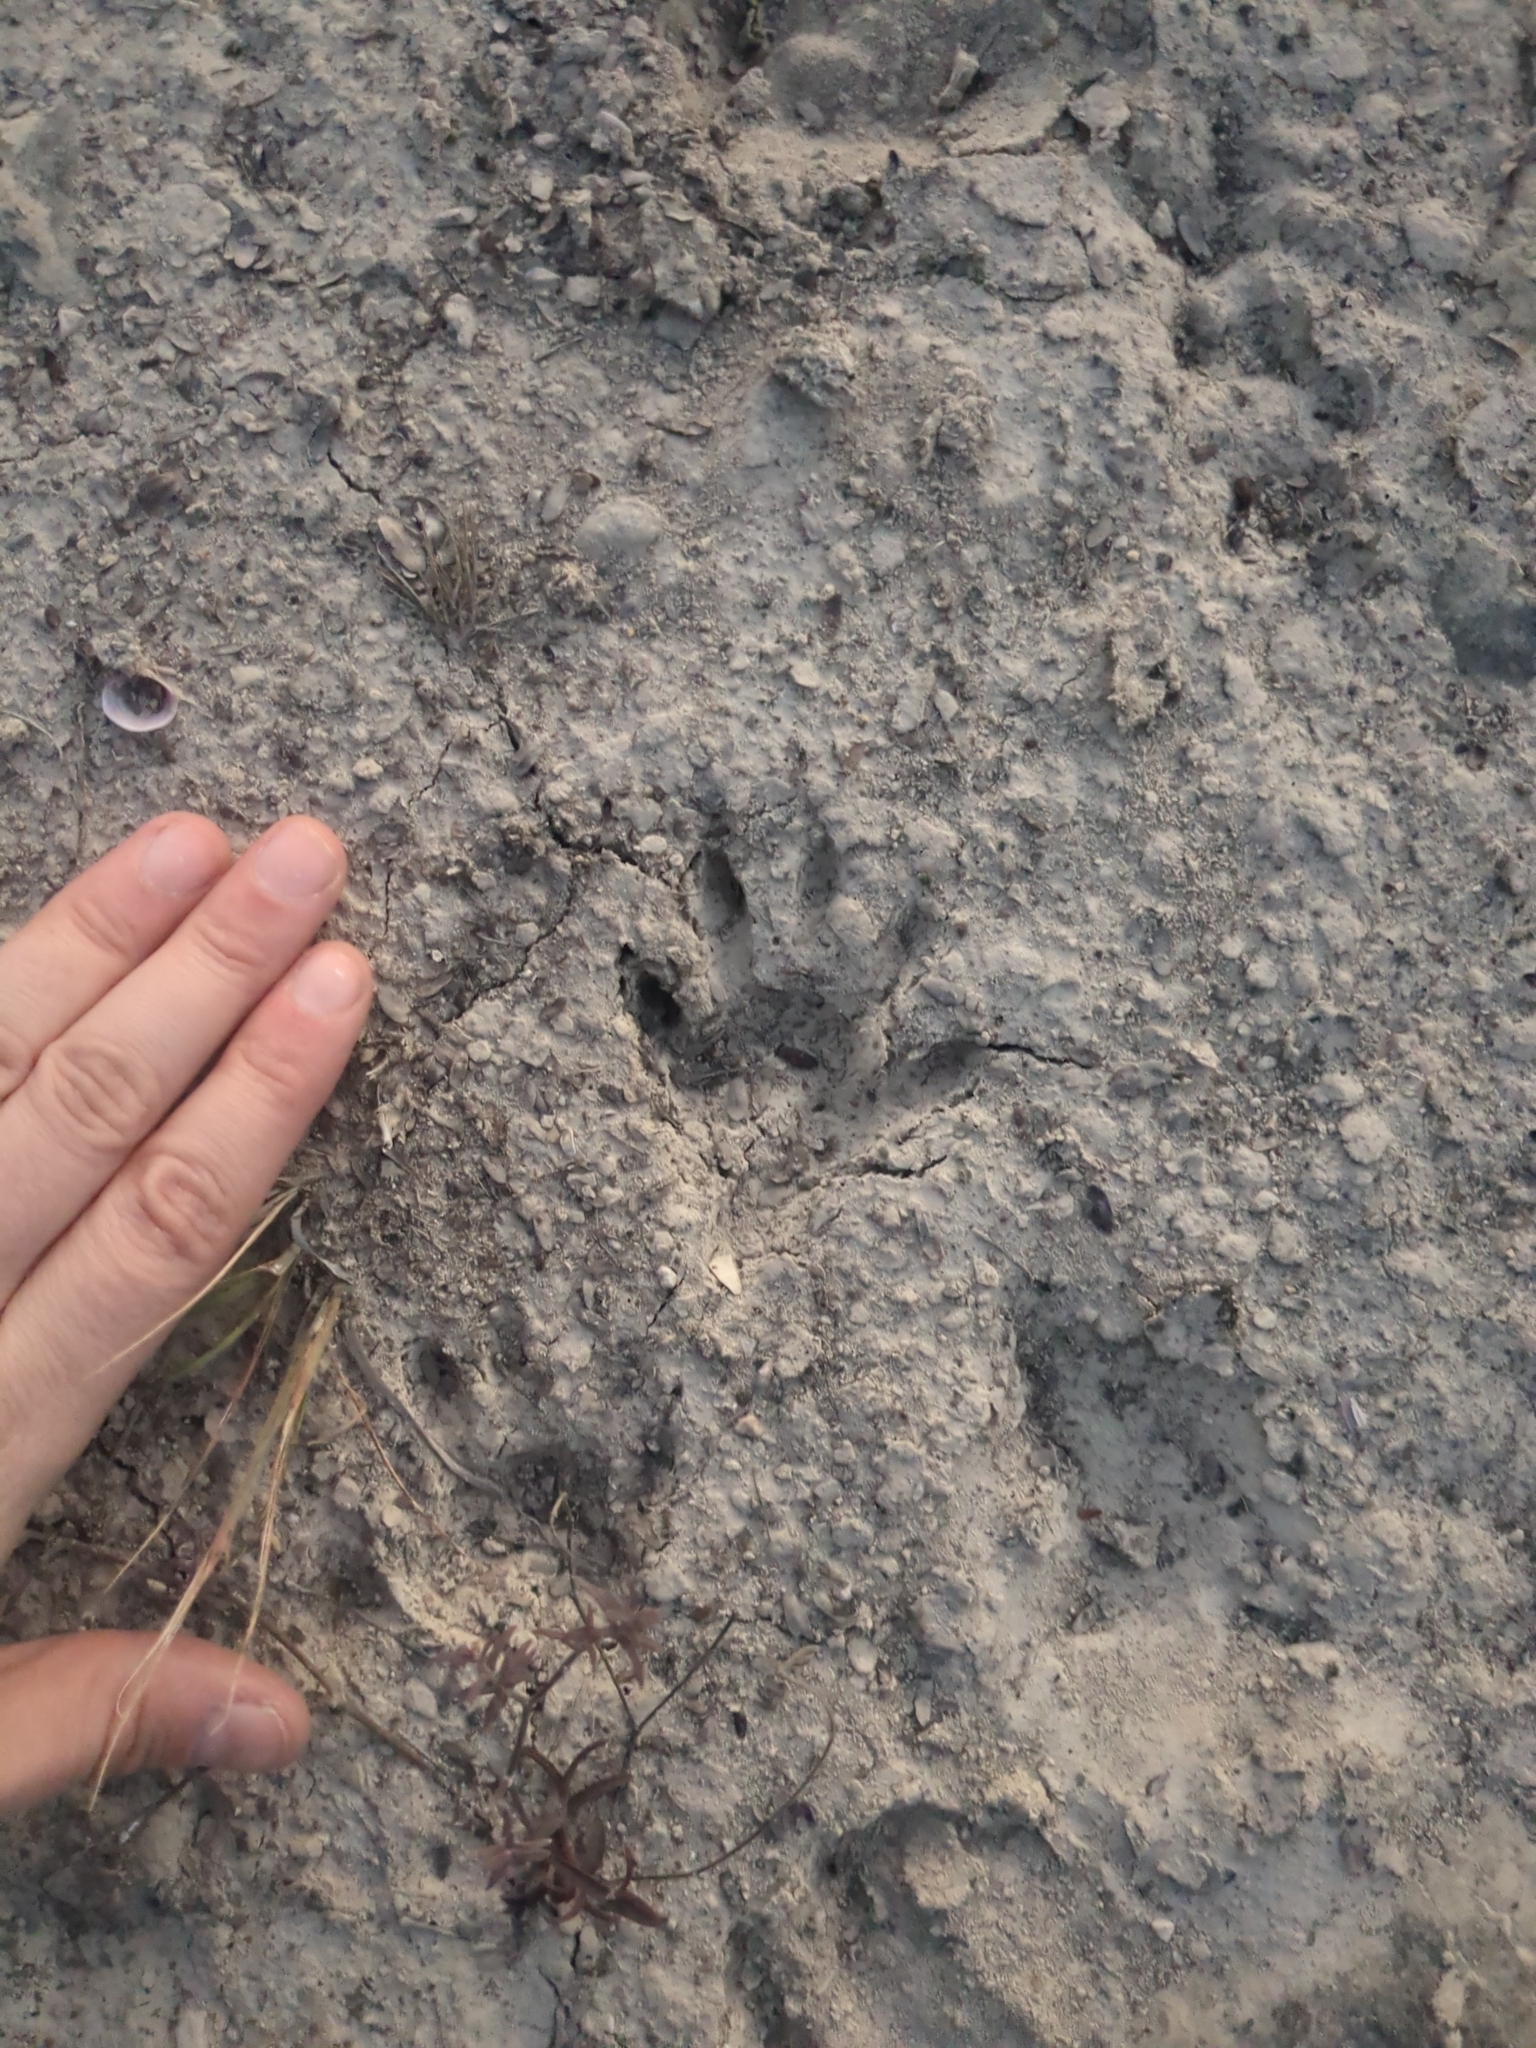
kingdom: Animalia
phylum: Chordata
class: Mammalia
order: Carnivora
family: Procyonidae
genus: Procyon
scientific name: Procyon lotor
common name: Raccoon
